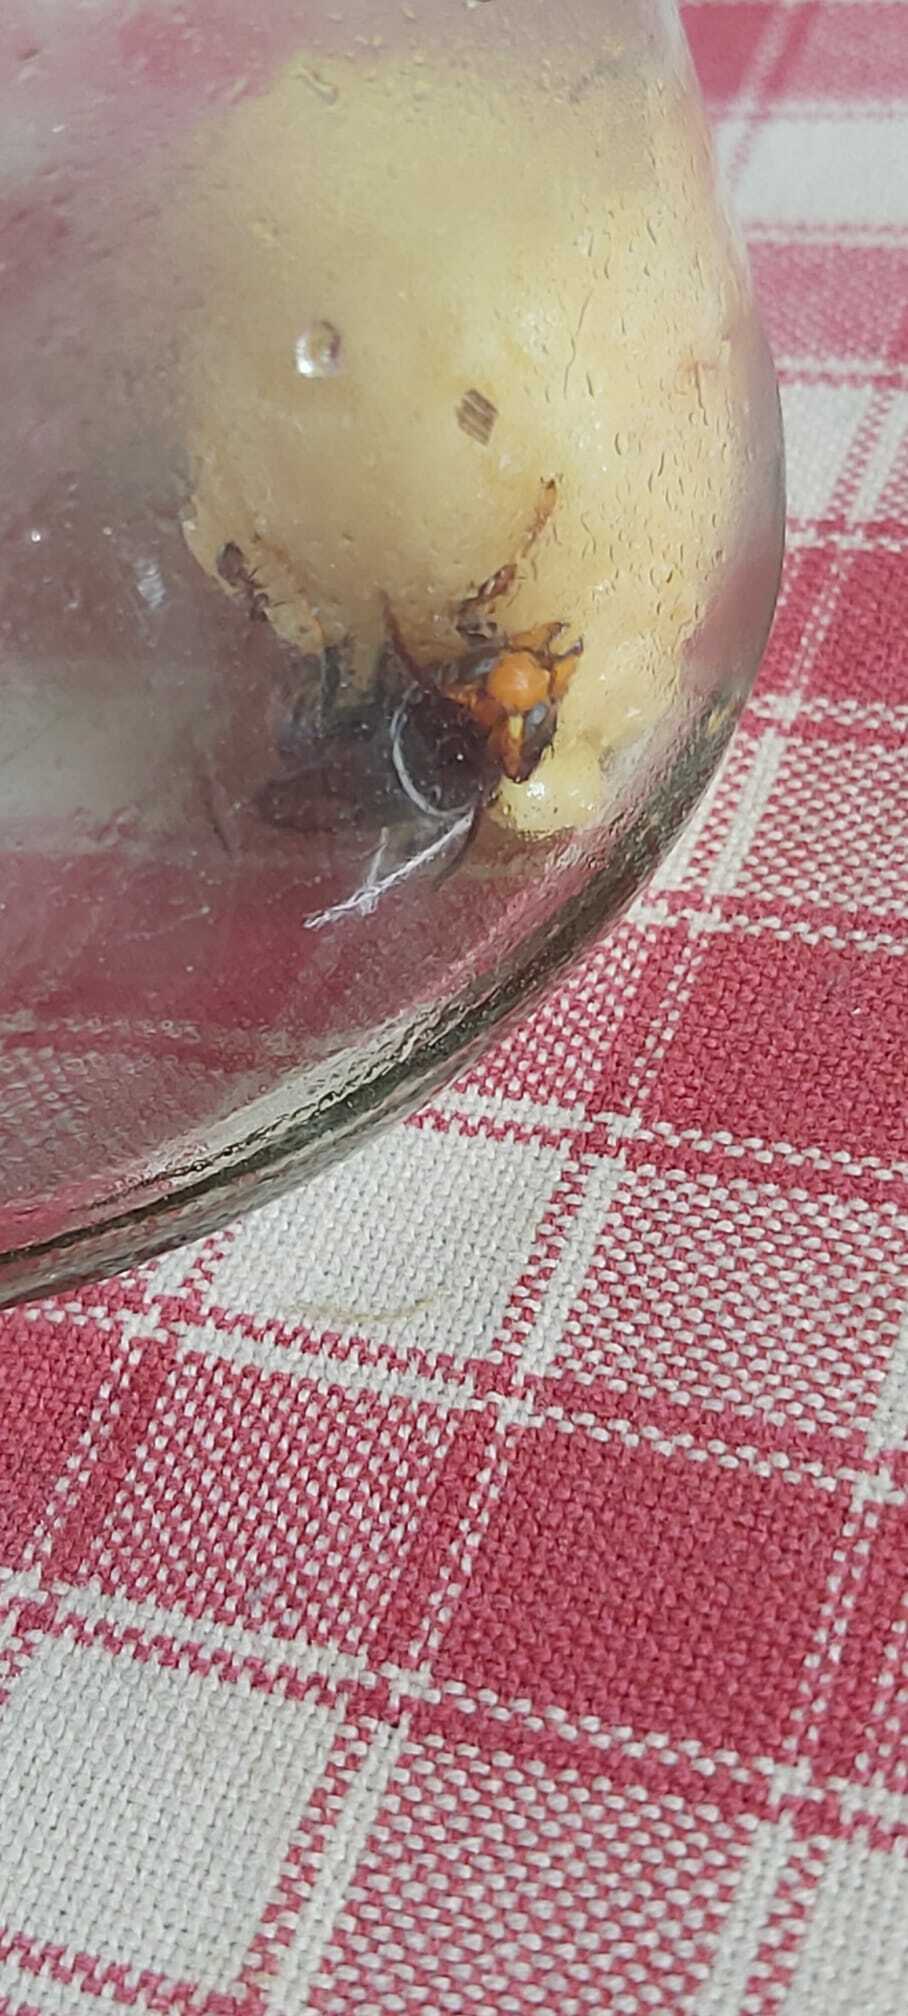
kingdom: Animalia
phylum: Arthropoda
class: Insecta
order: Hymenoptera
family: Vespidae
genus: Vespa
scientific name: Vespa velutina
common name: Asian hornet
